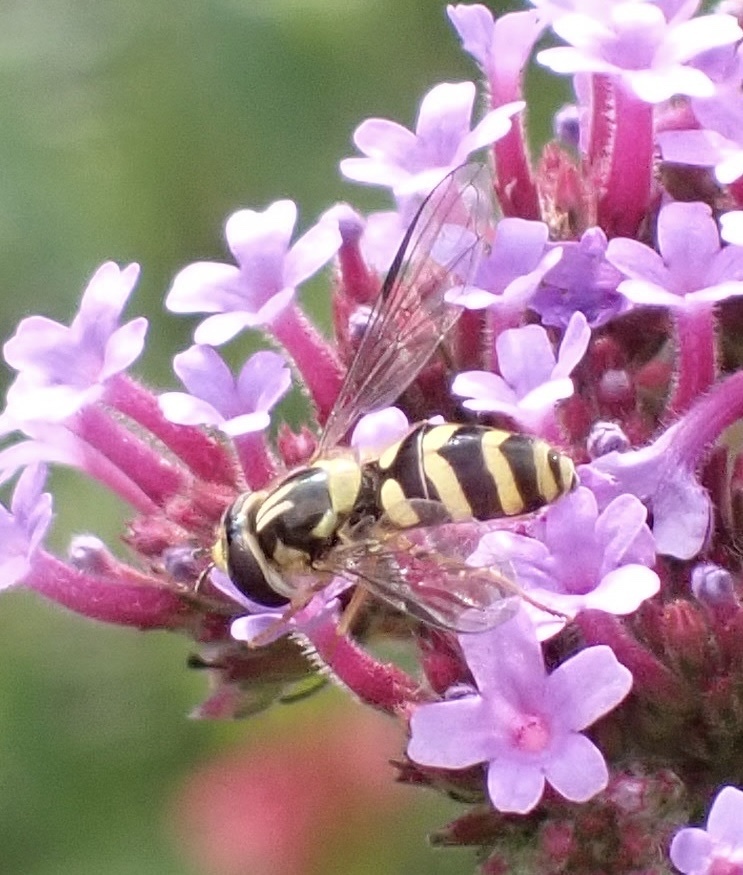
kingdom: Animalia
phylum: Arthropoda
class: Insecta
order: Diptera
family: Syrphidae
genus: Dasysyrphus
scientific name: Dasysyrphus albostriatus
